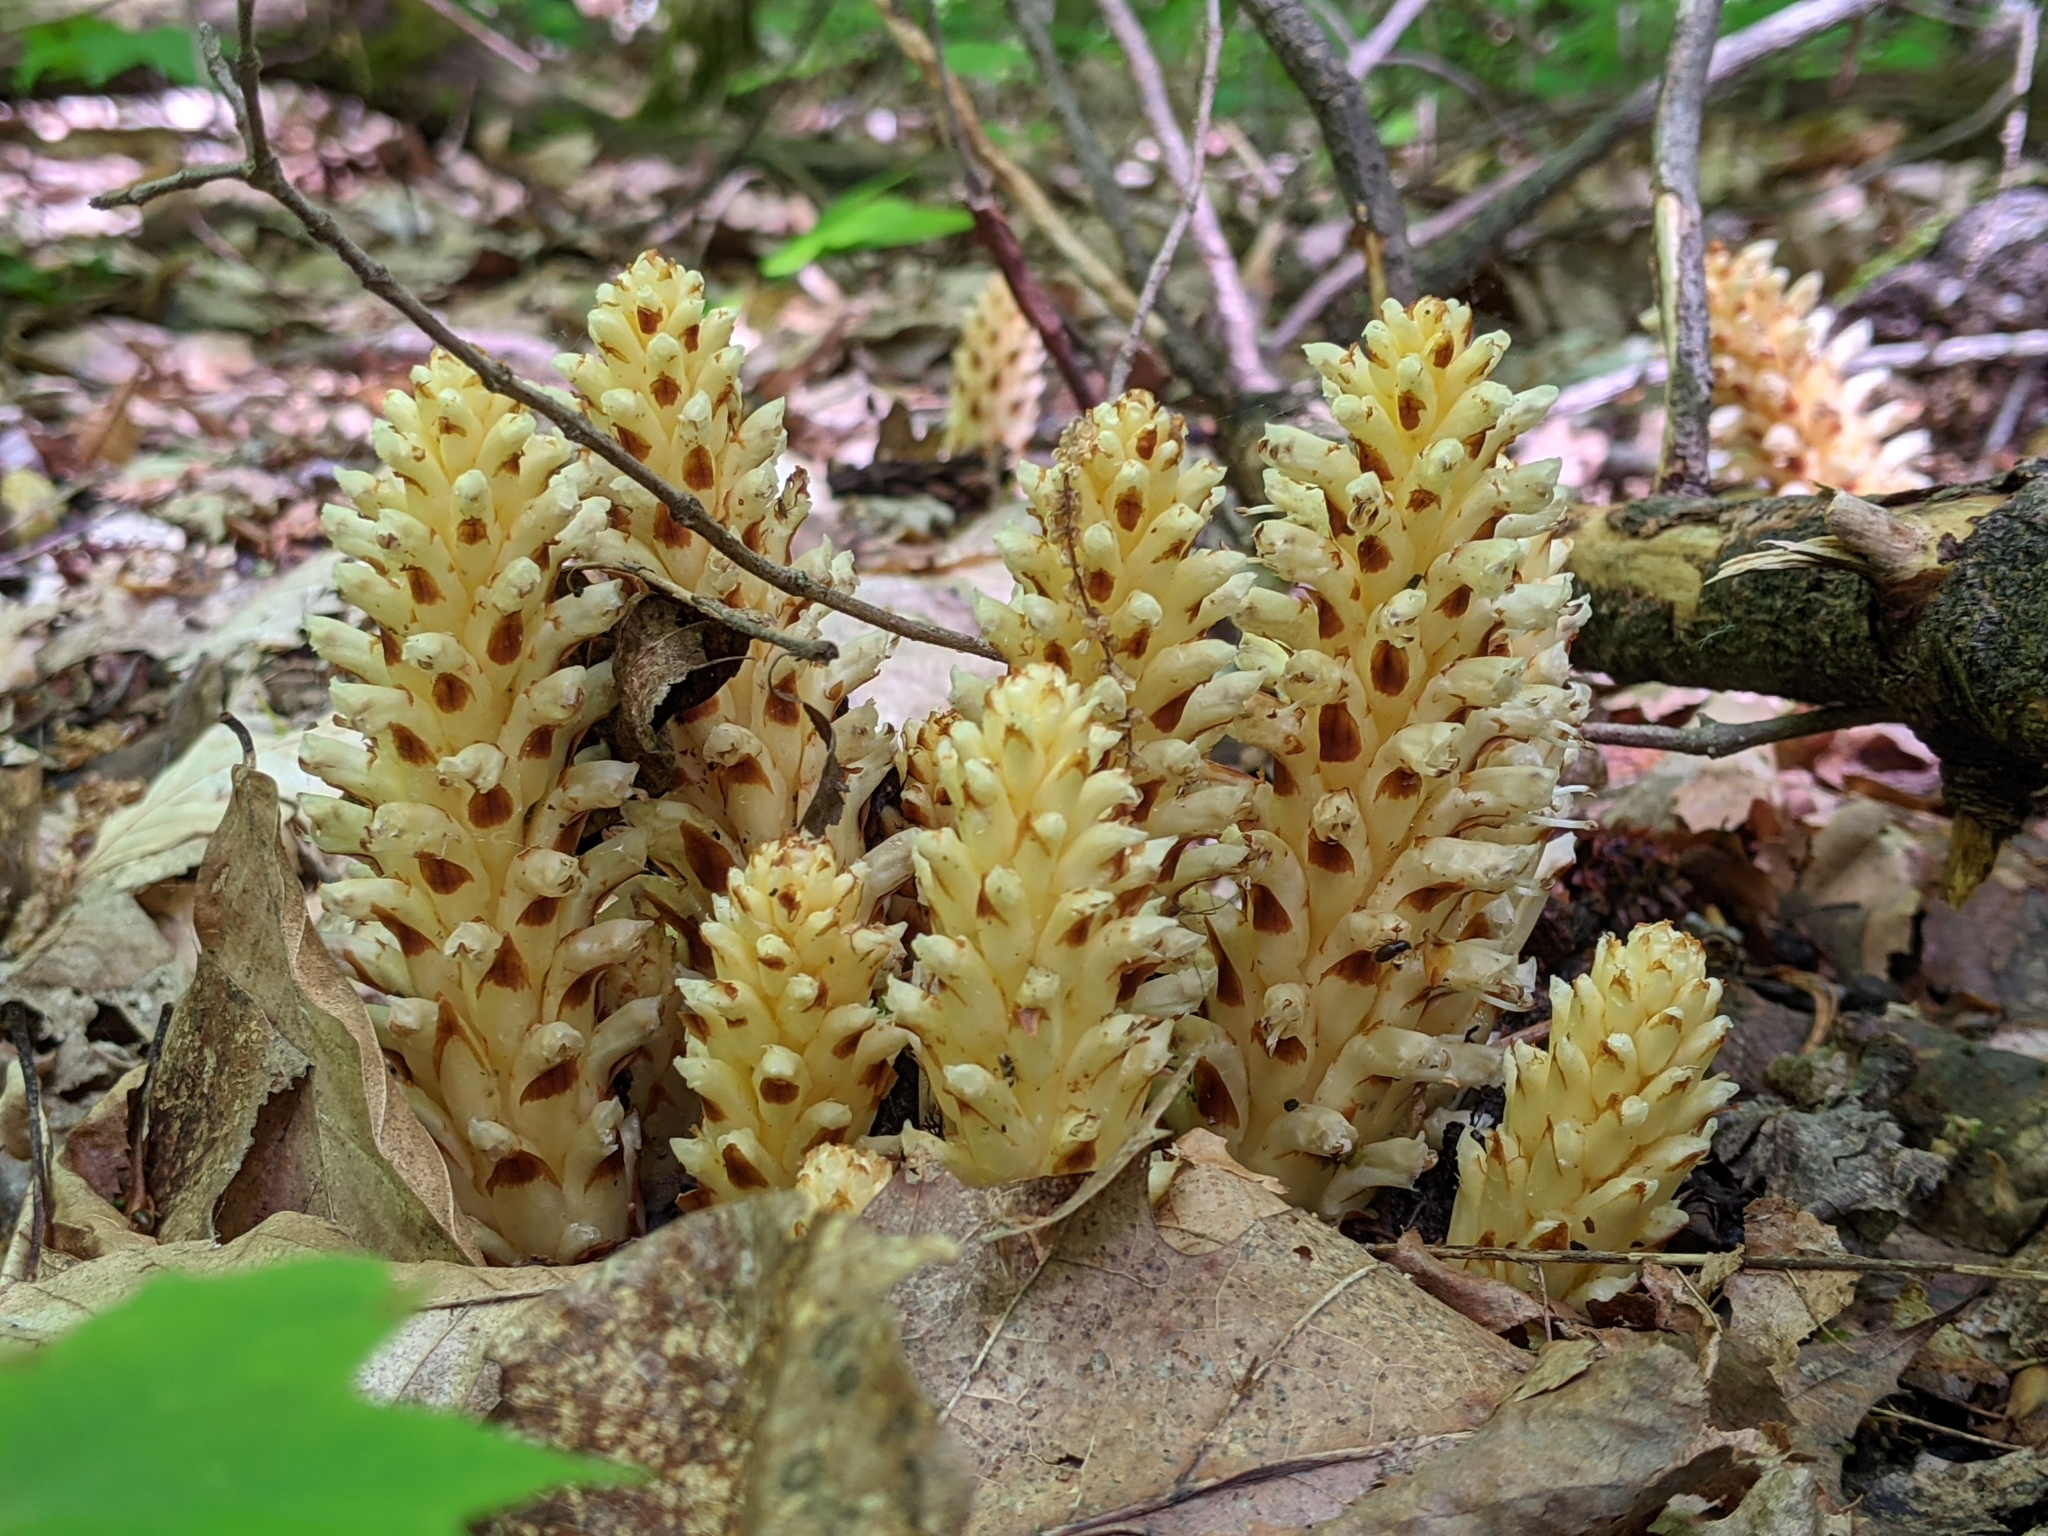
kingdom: Plantae
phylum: Tracheophyta
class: Magnoliopsida
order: Lamiales
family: Orobanchaceae
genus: Conopholis
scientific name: Conopholis americana
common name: American cancer-root
